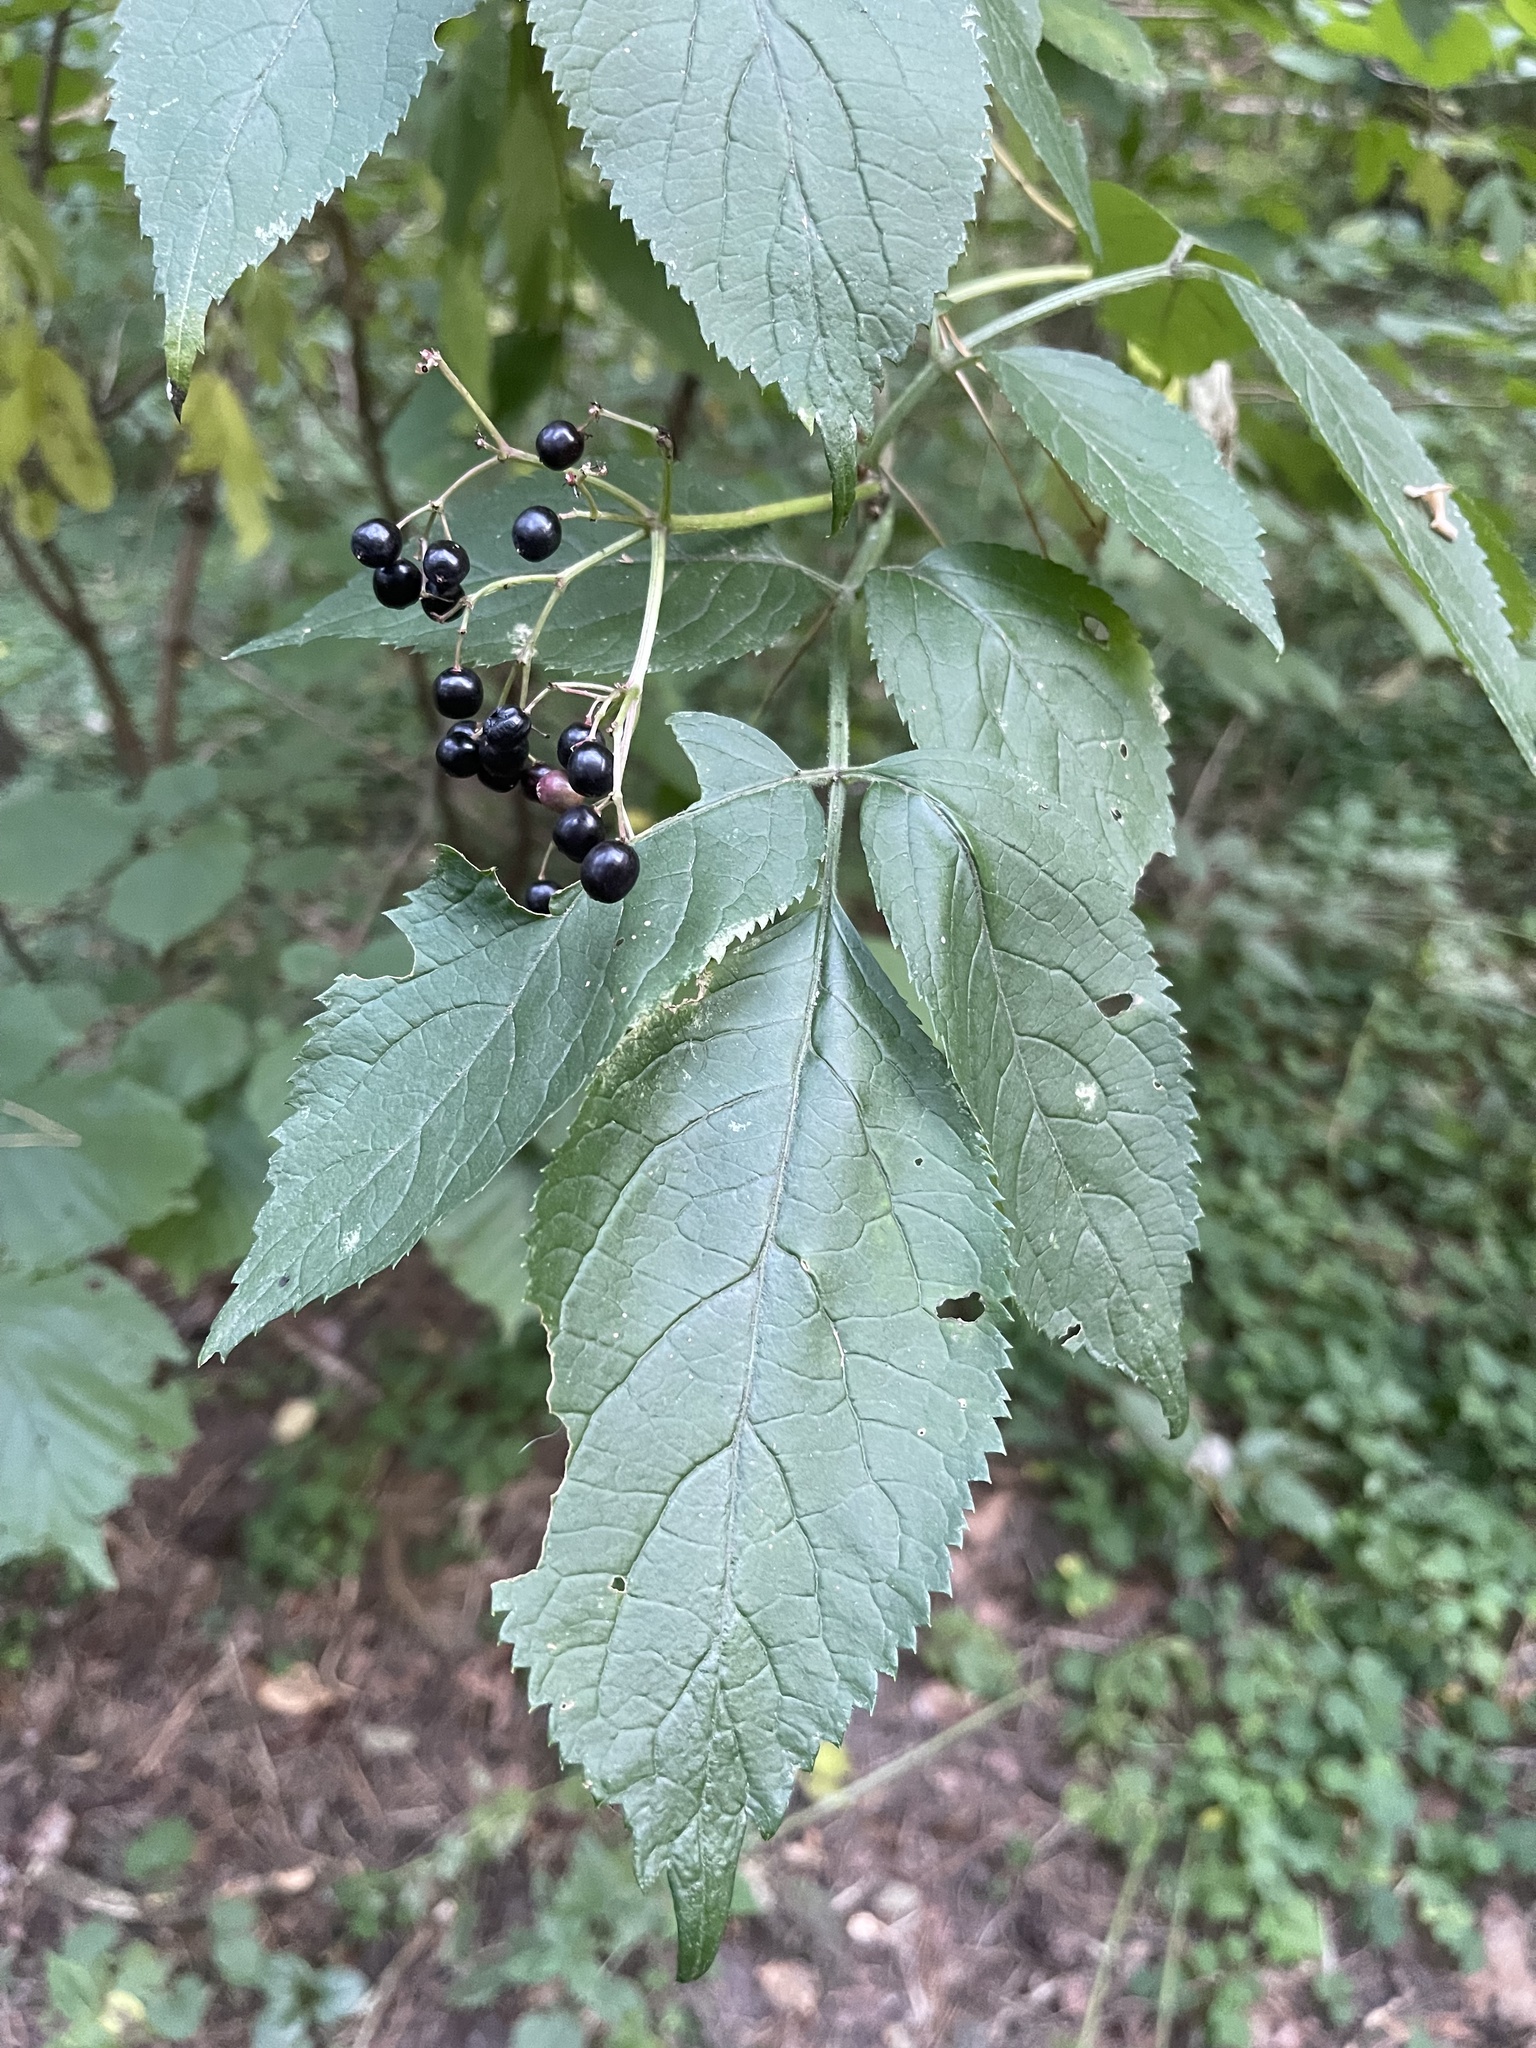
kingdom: Plantae
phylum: Tracheophyta
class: Magnoliopsida
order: Dipsacales
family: Viburnaceae
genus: Sambucus
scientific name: Sambucus nigra
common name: Elder
